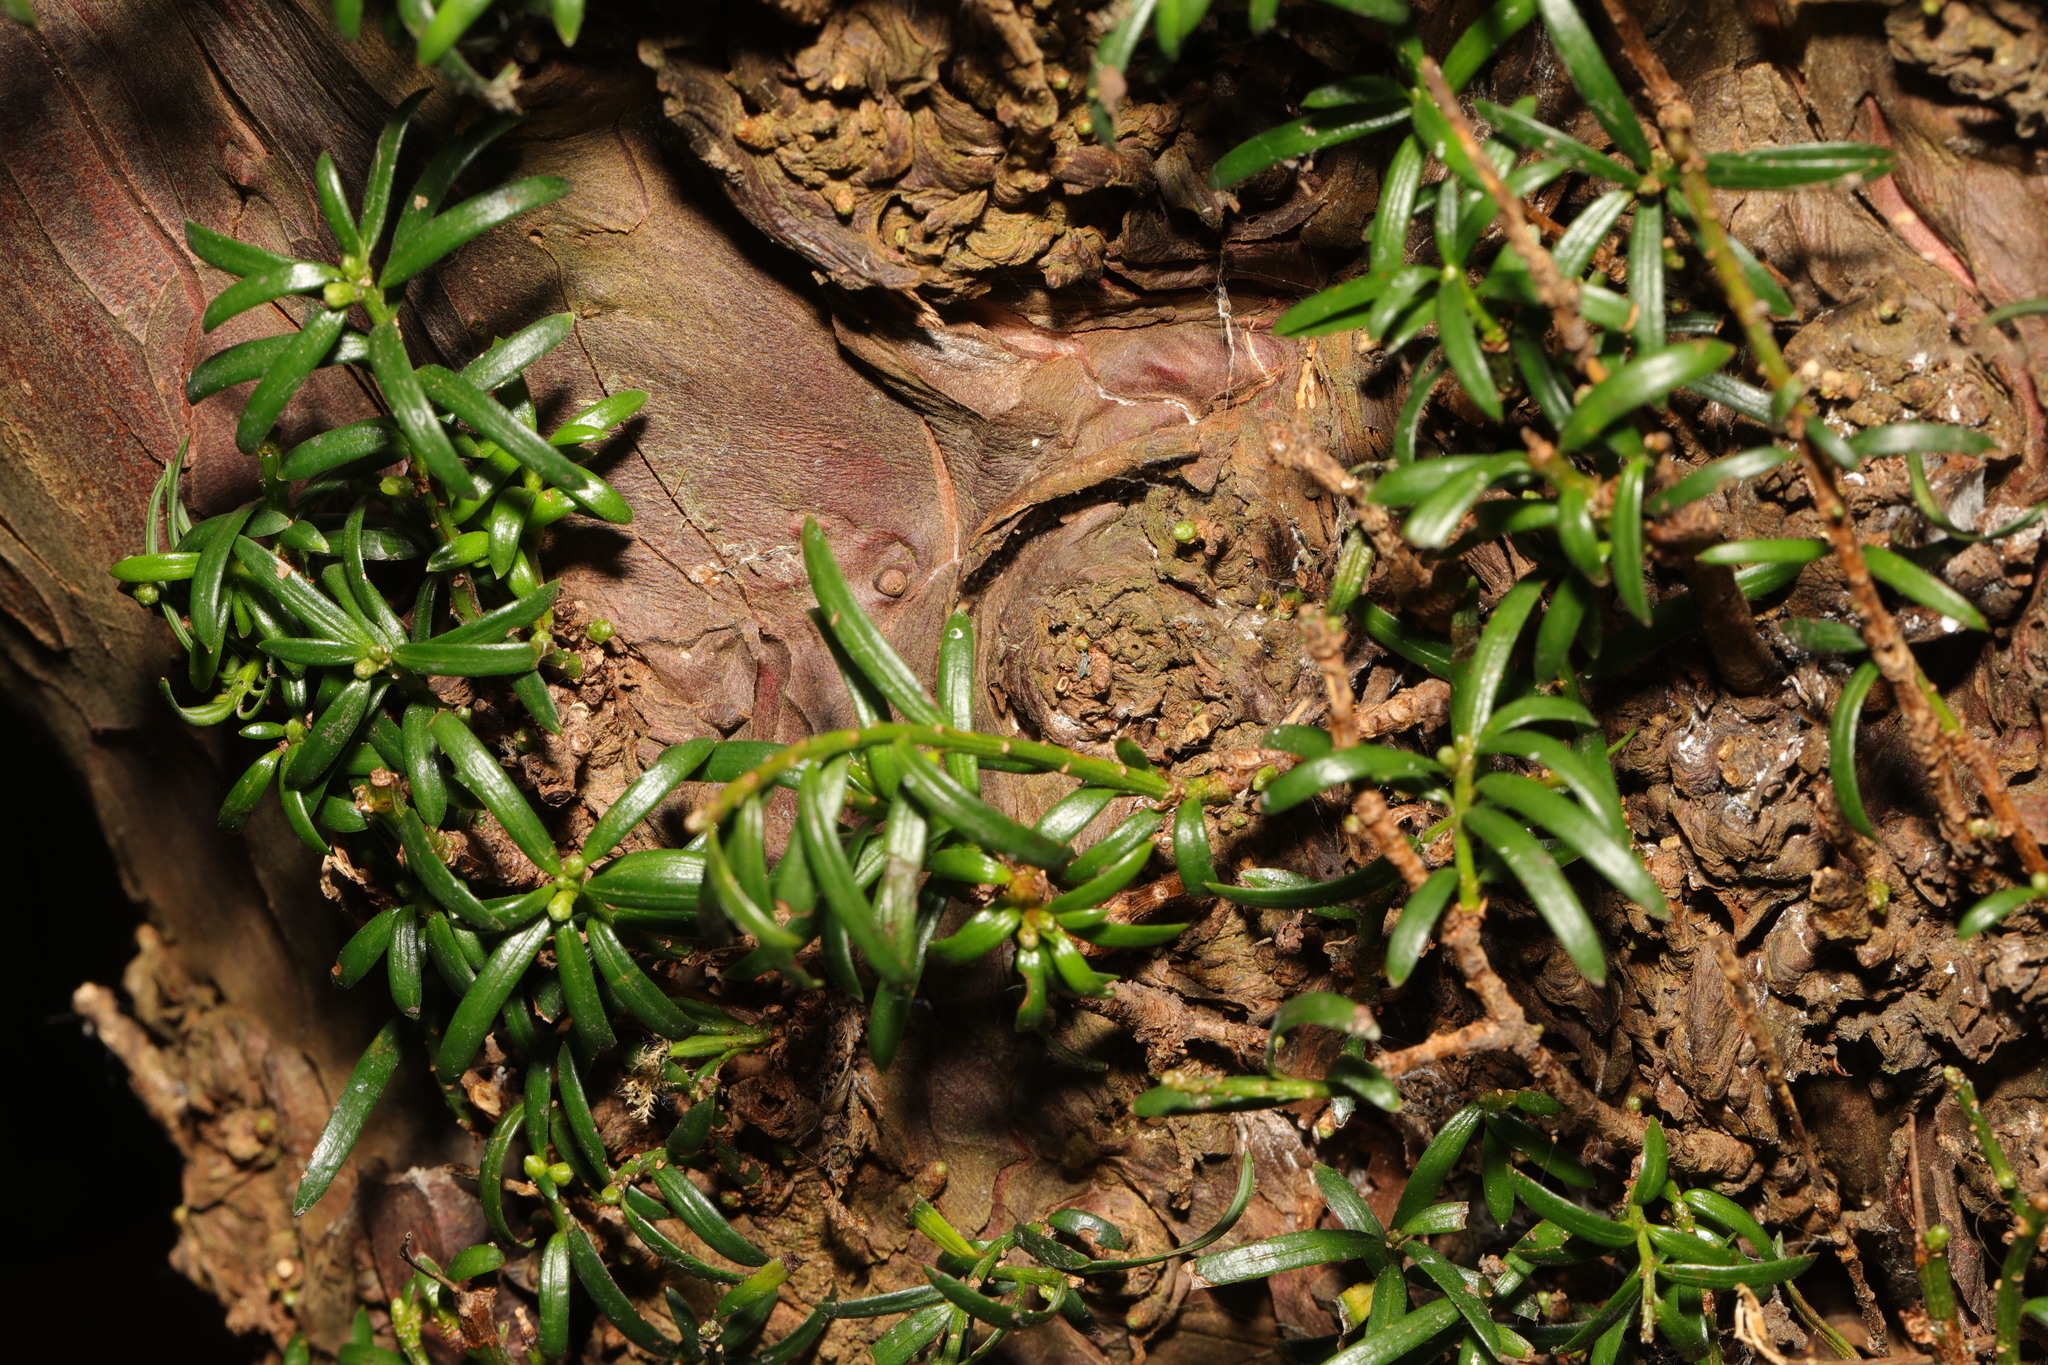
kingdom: Plantae
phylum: Tracheophyta
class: Pinopsida
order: Pinales
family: Taxaceae
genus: Taxus
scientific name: Taxus baccata
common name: Yew
